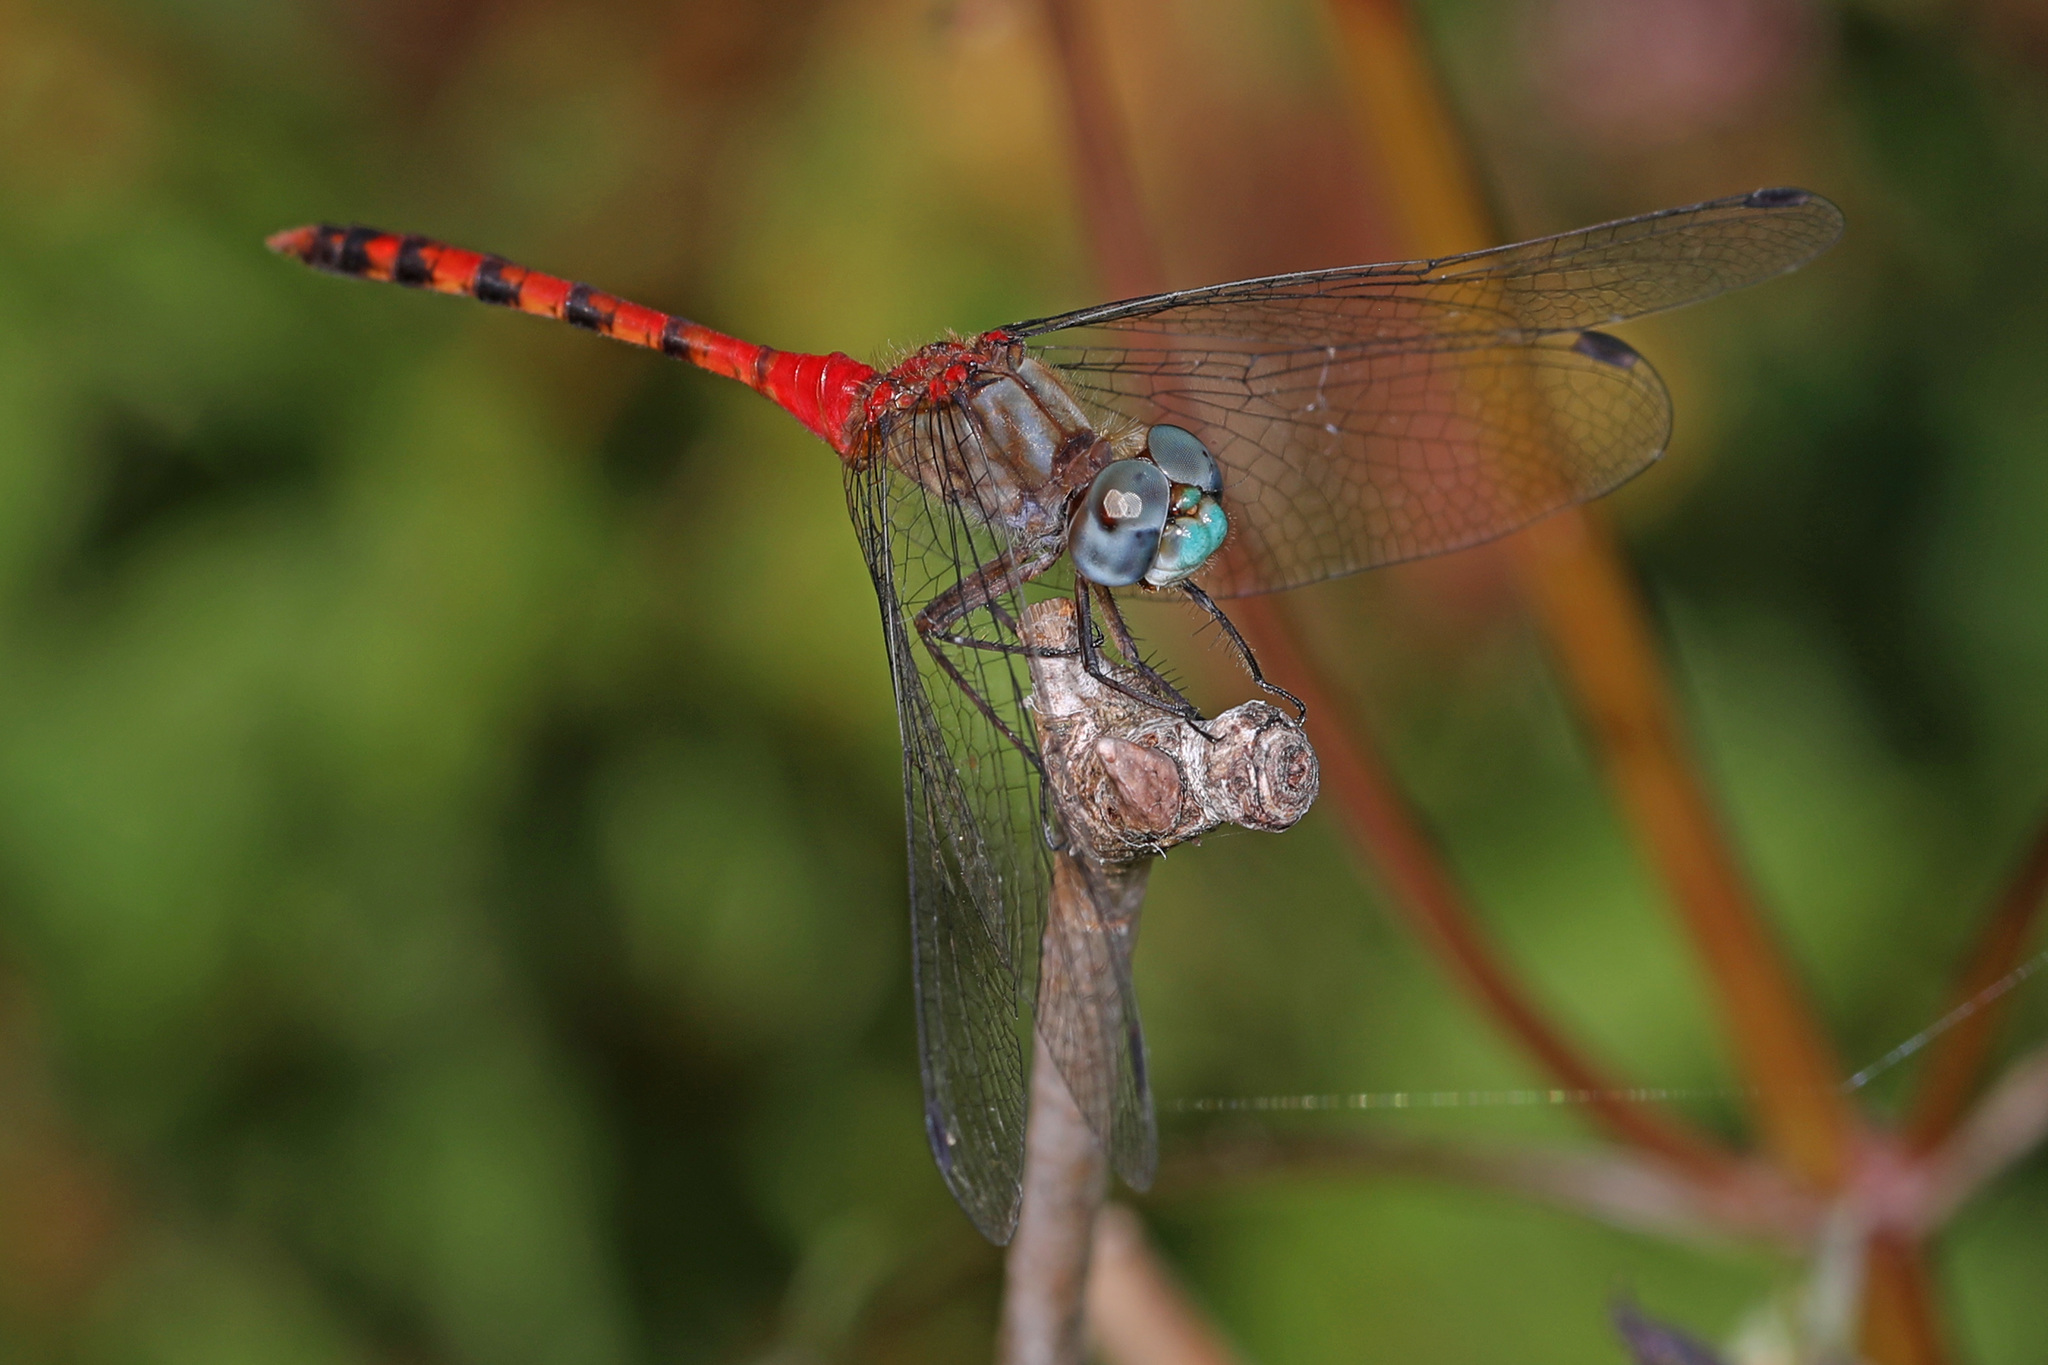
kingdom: Animalia
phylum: Arthropoda
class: Insecta
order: Odonata
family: Libellulidae
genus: Sympetrum
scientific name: Sympetrum ambiguum
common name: Blue-faced meadowhawk
